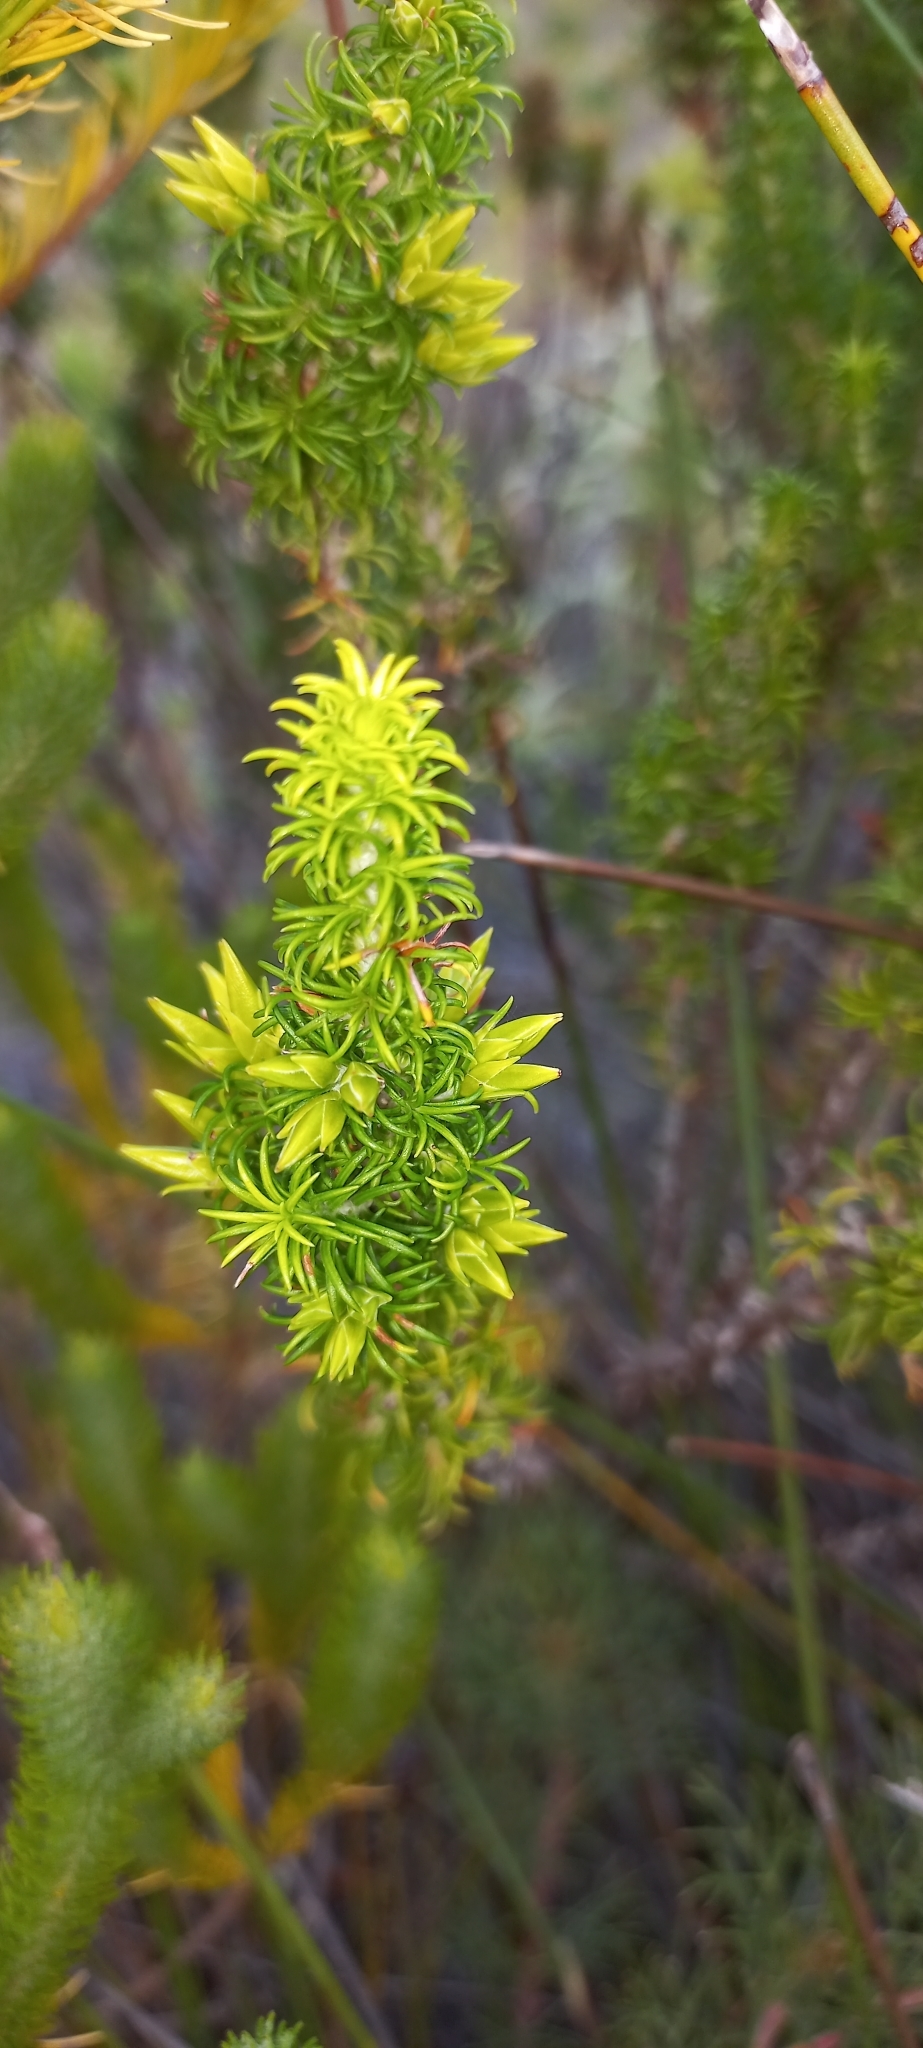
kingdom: Plantae
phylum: Tracheophyta
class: Magnoliopsida
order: Ericales
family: Ericaceae
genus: Erica
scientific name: Erica coccinea
